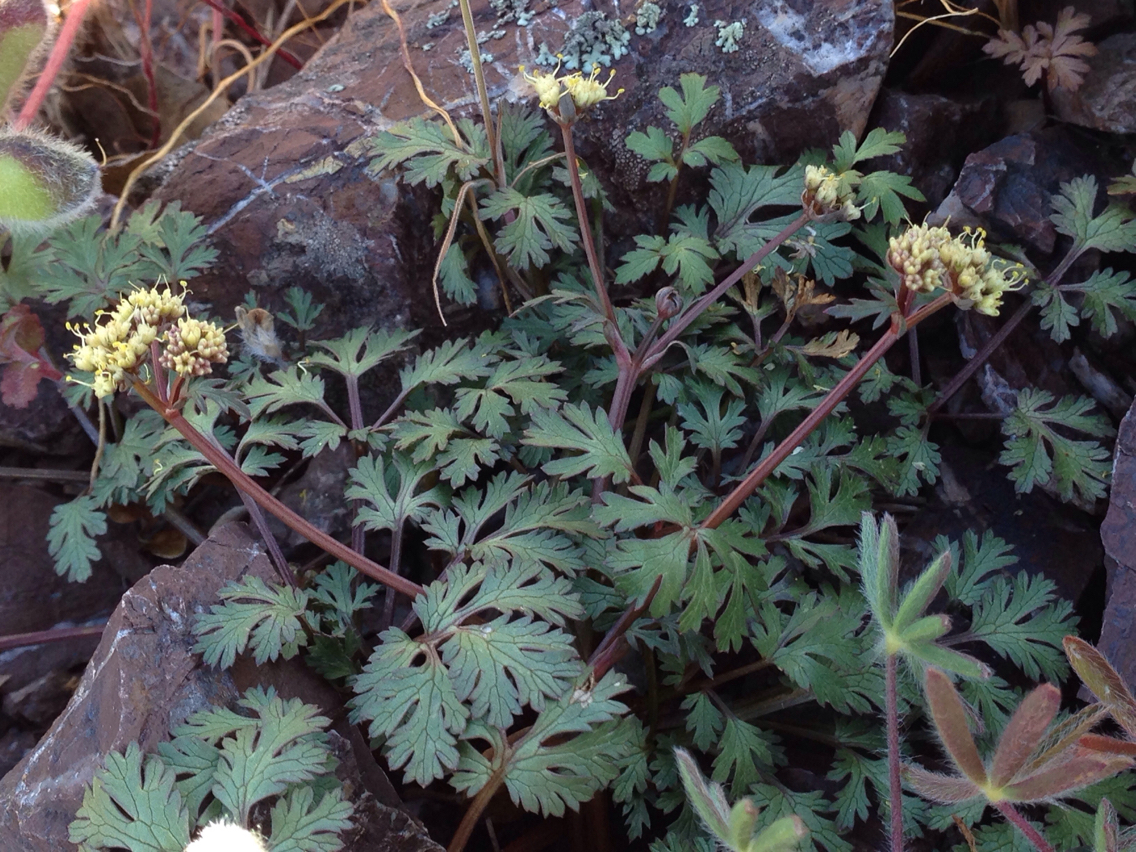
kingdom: Plantae
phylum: Tracheophyta
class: Magnoliopsida
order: Apiales
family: Apiaceae
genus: Sanicula
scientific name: Sanicula saxatilis
